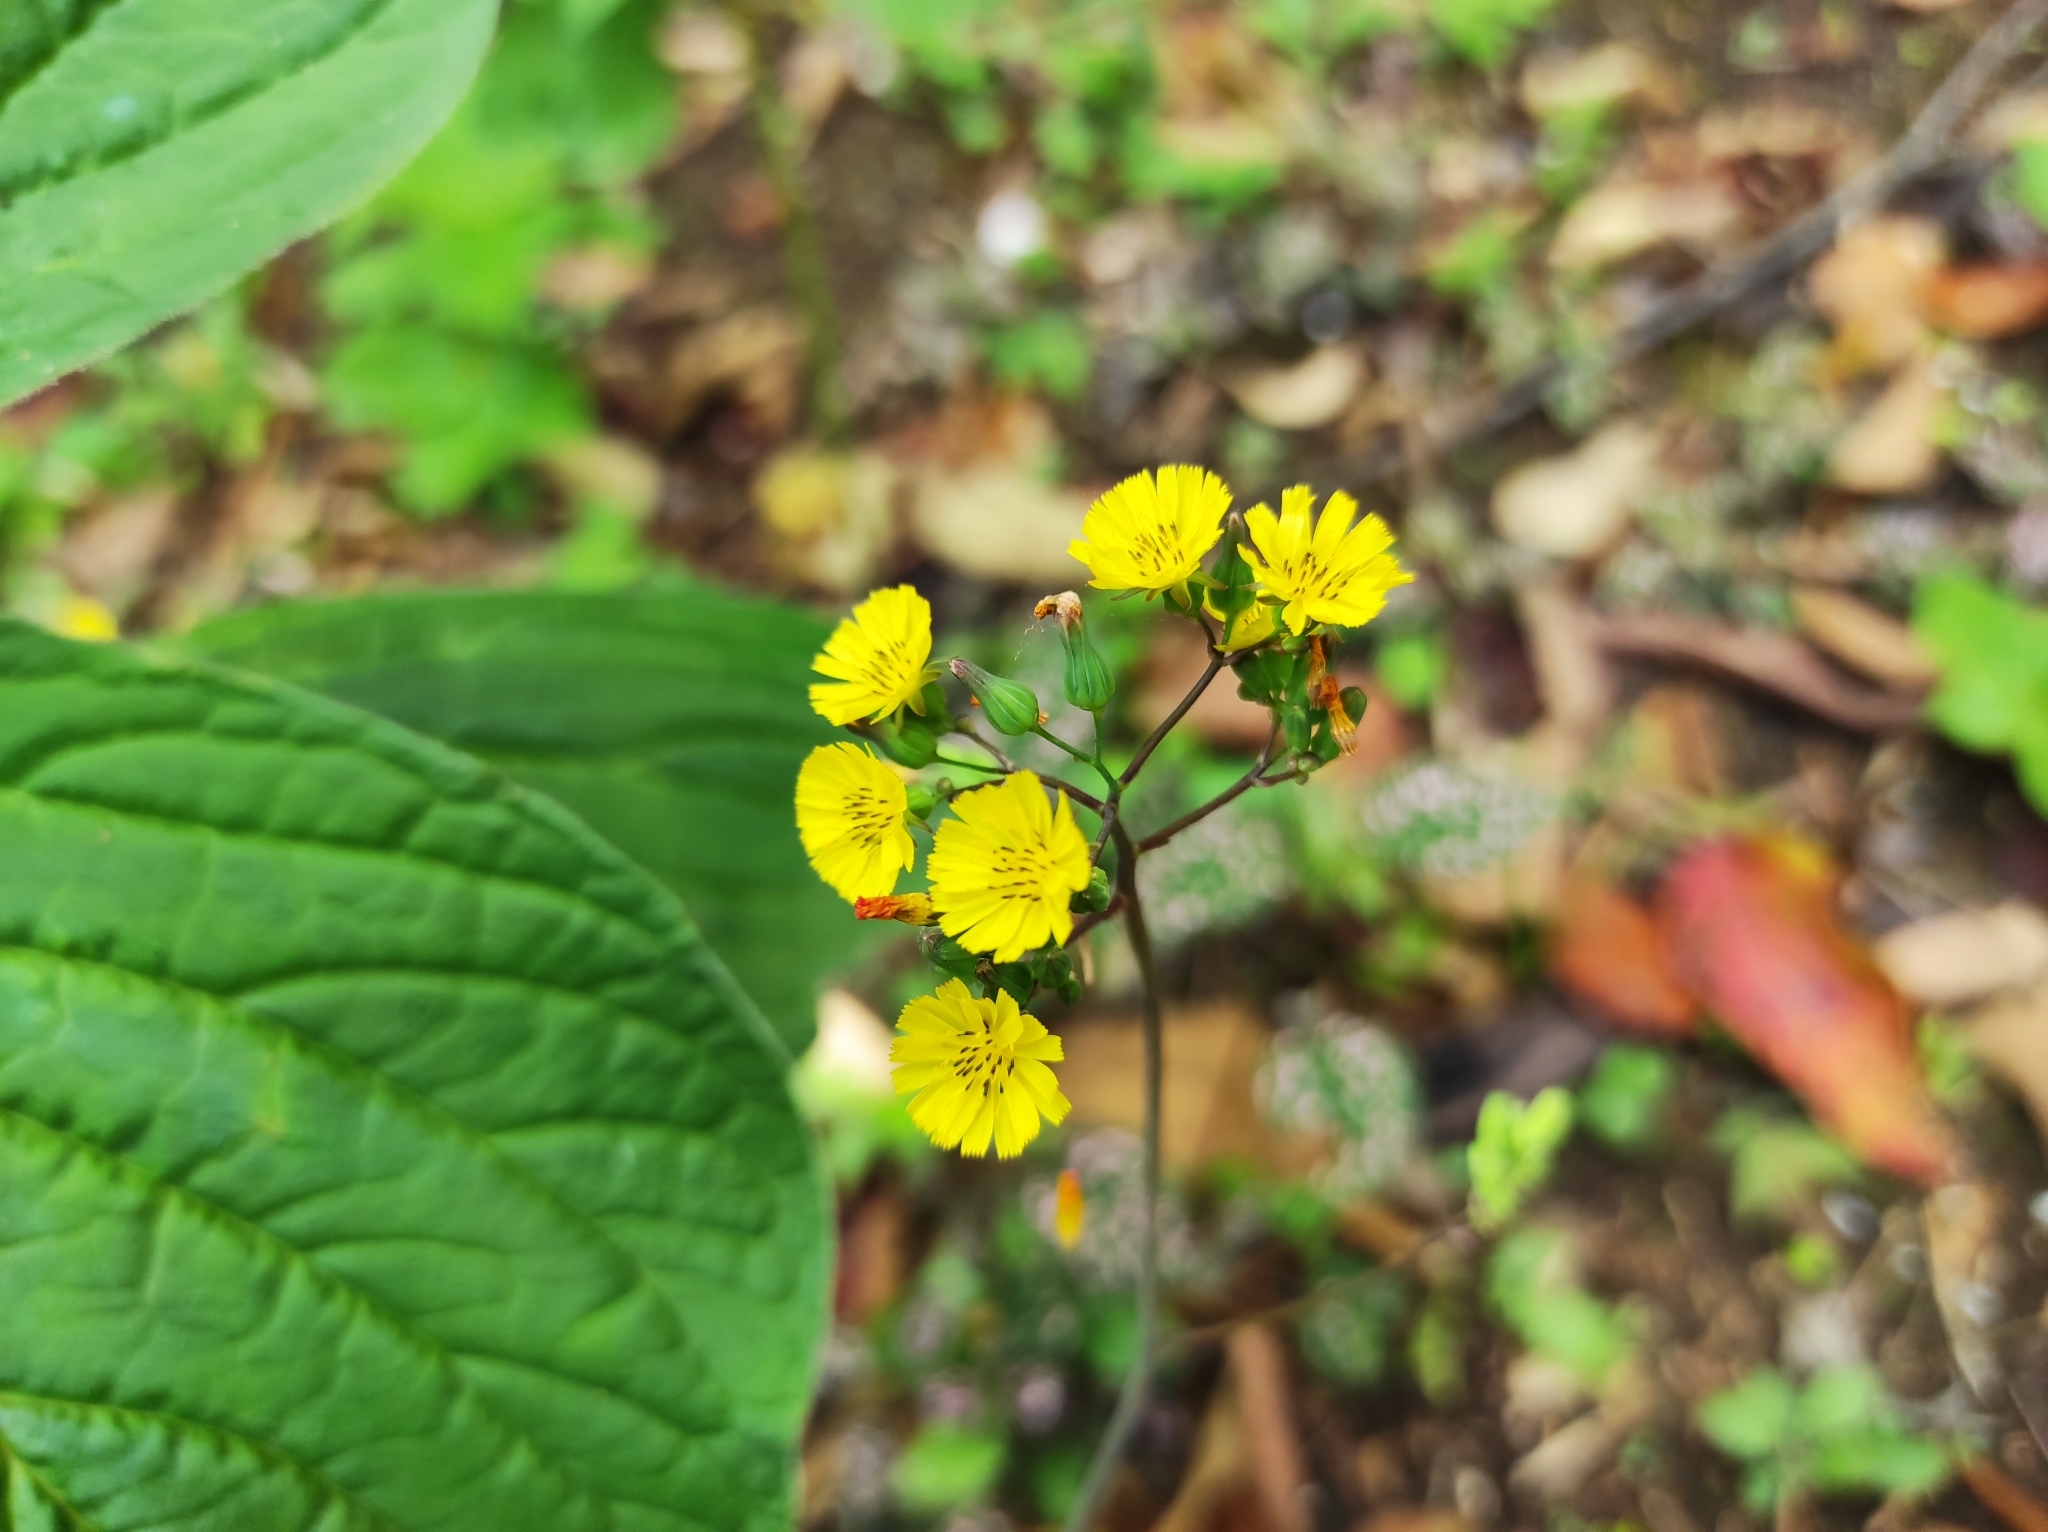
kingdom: Plantae
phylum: Tracheophyta
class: Magnoliopsida
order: Asterales
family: Asteraceae
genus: Youngia
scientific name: Youngia japonica
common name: Oriental false hawksbeard
